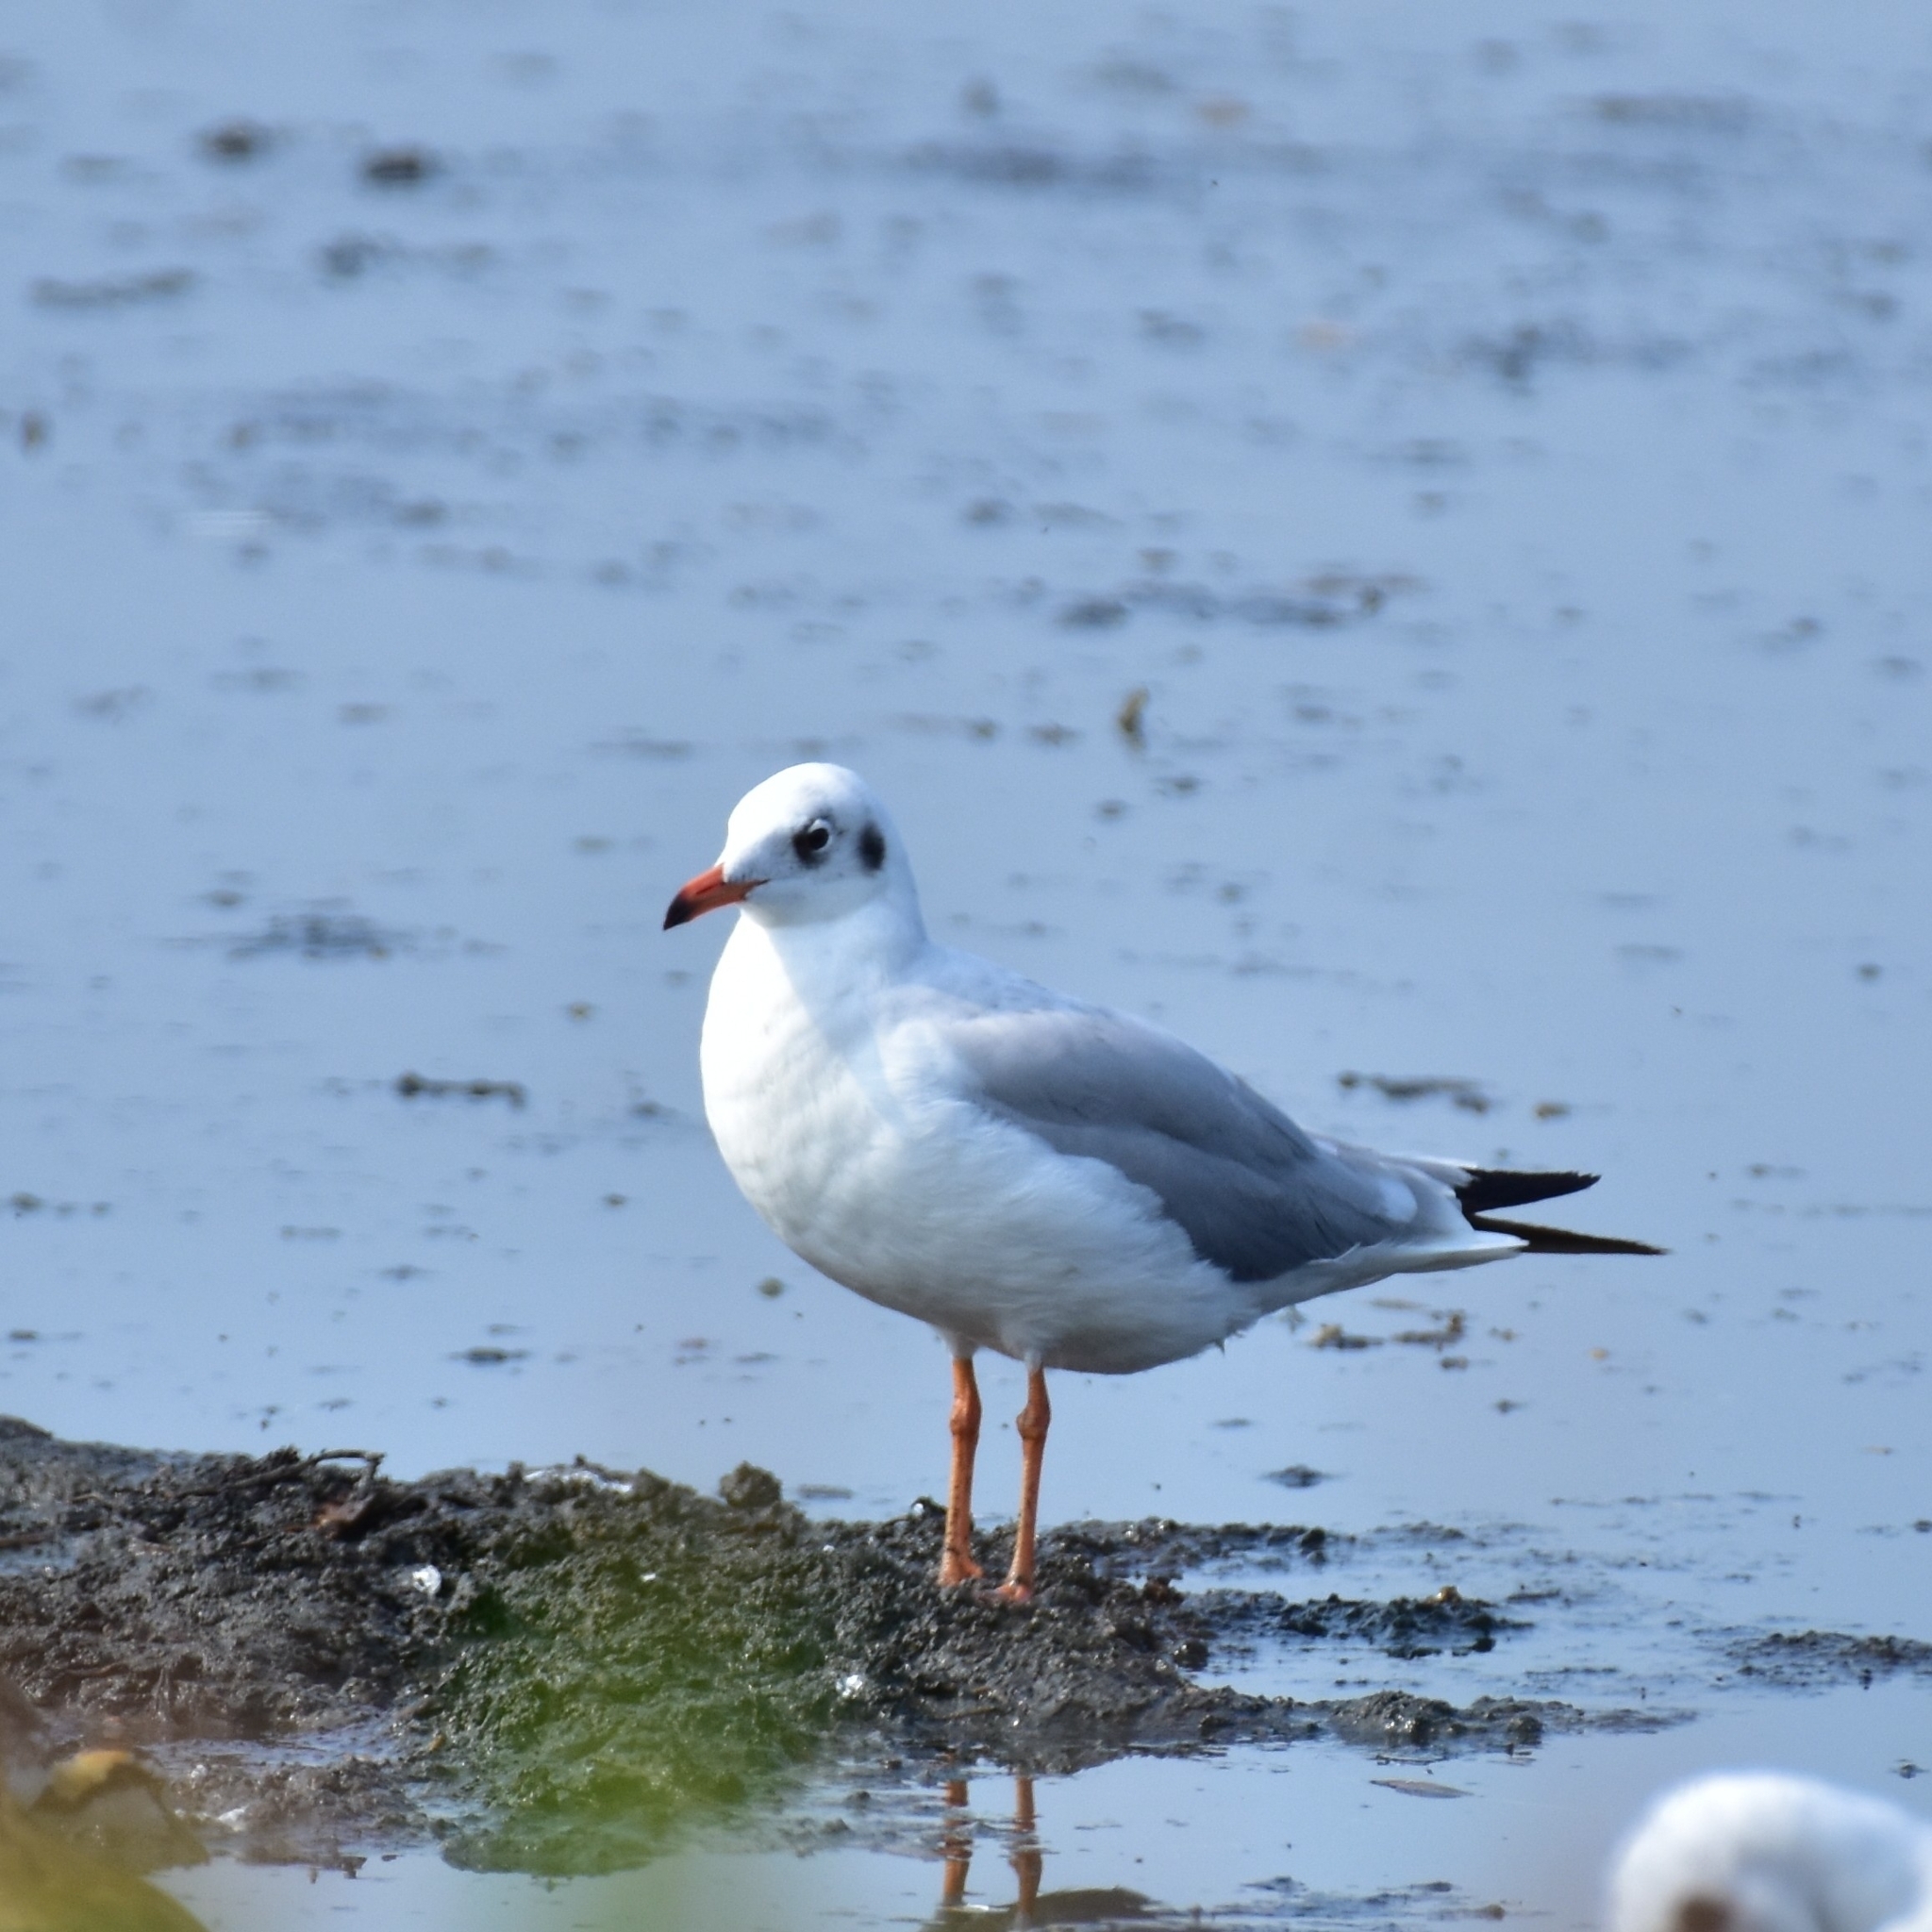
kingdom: Animalia
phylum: Chordata
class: Aves
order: Charadriiformes
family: Laridae
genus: Chroicocephalus
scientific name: Chroicocephalus brunnicephalus
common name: Brown-headed gull
